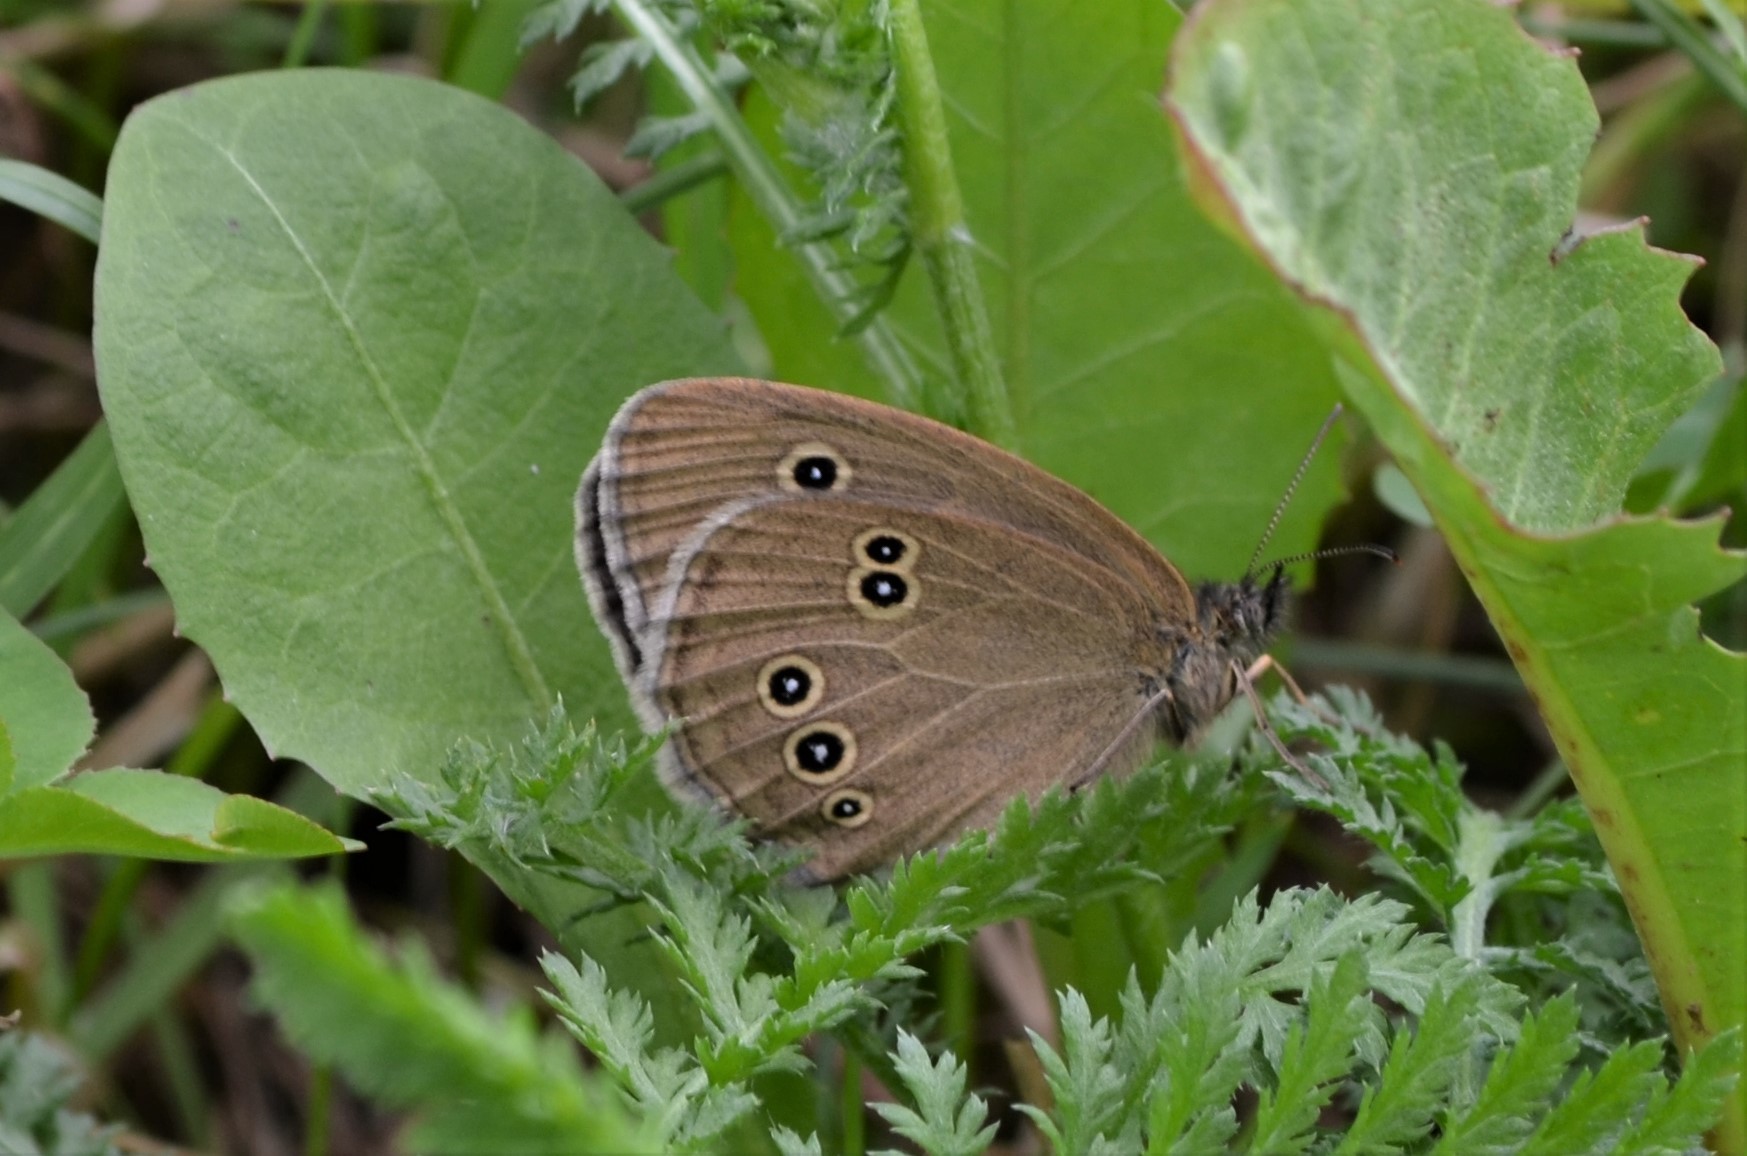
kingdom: Animalia
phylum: Arthropoda
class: Insecta
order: Lepidoptera
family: Nymphalidae
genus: Aphantopus
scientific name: Aphantopus hyperantus
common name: Ringlet
